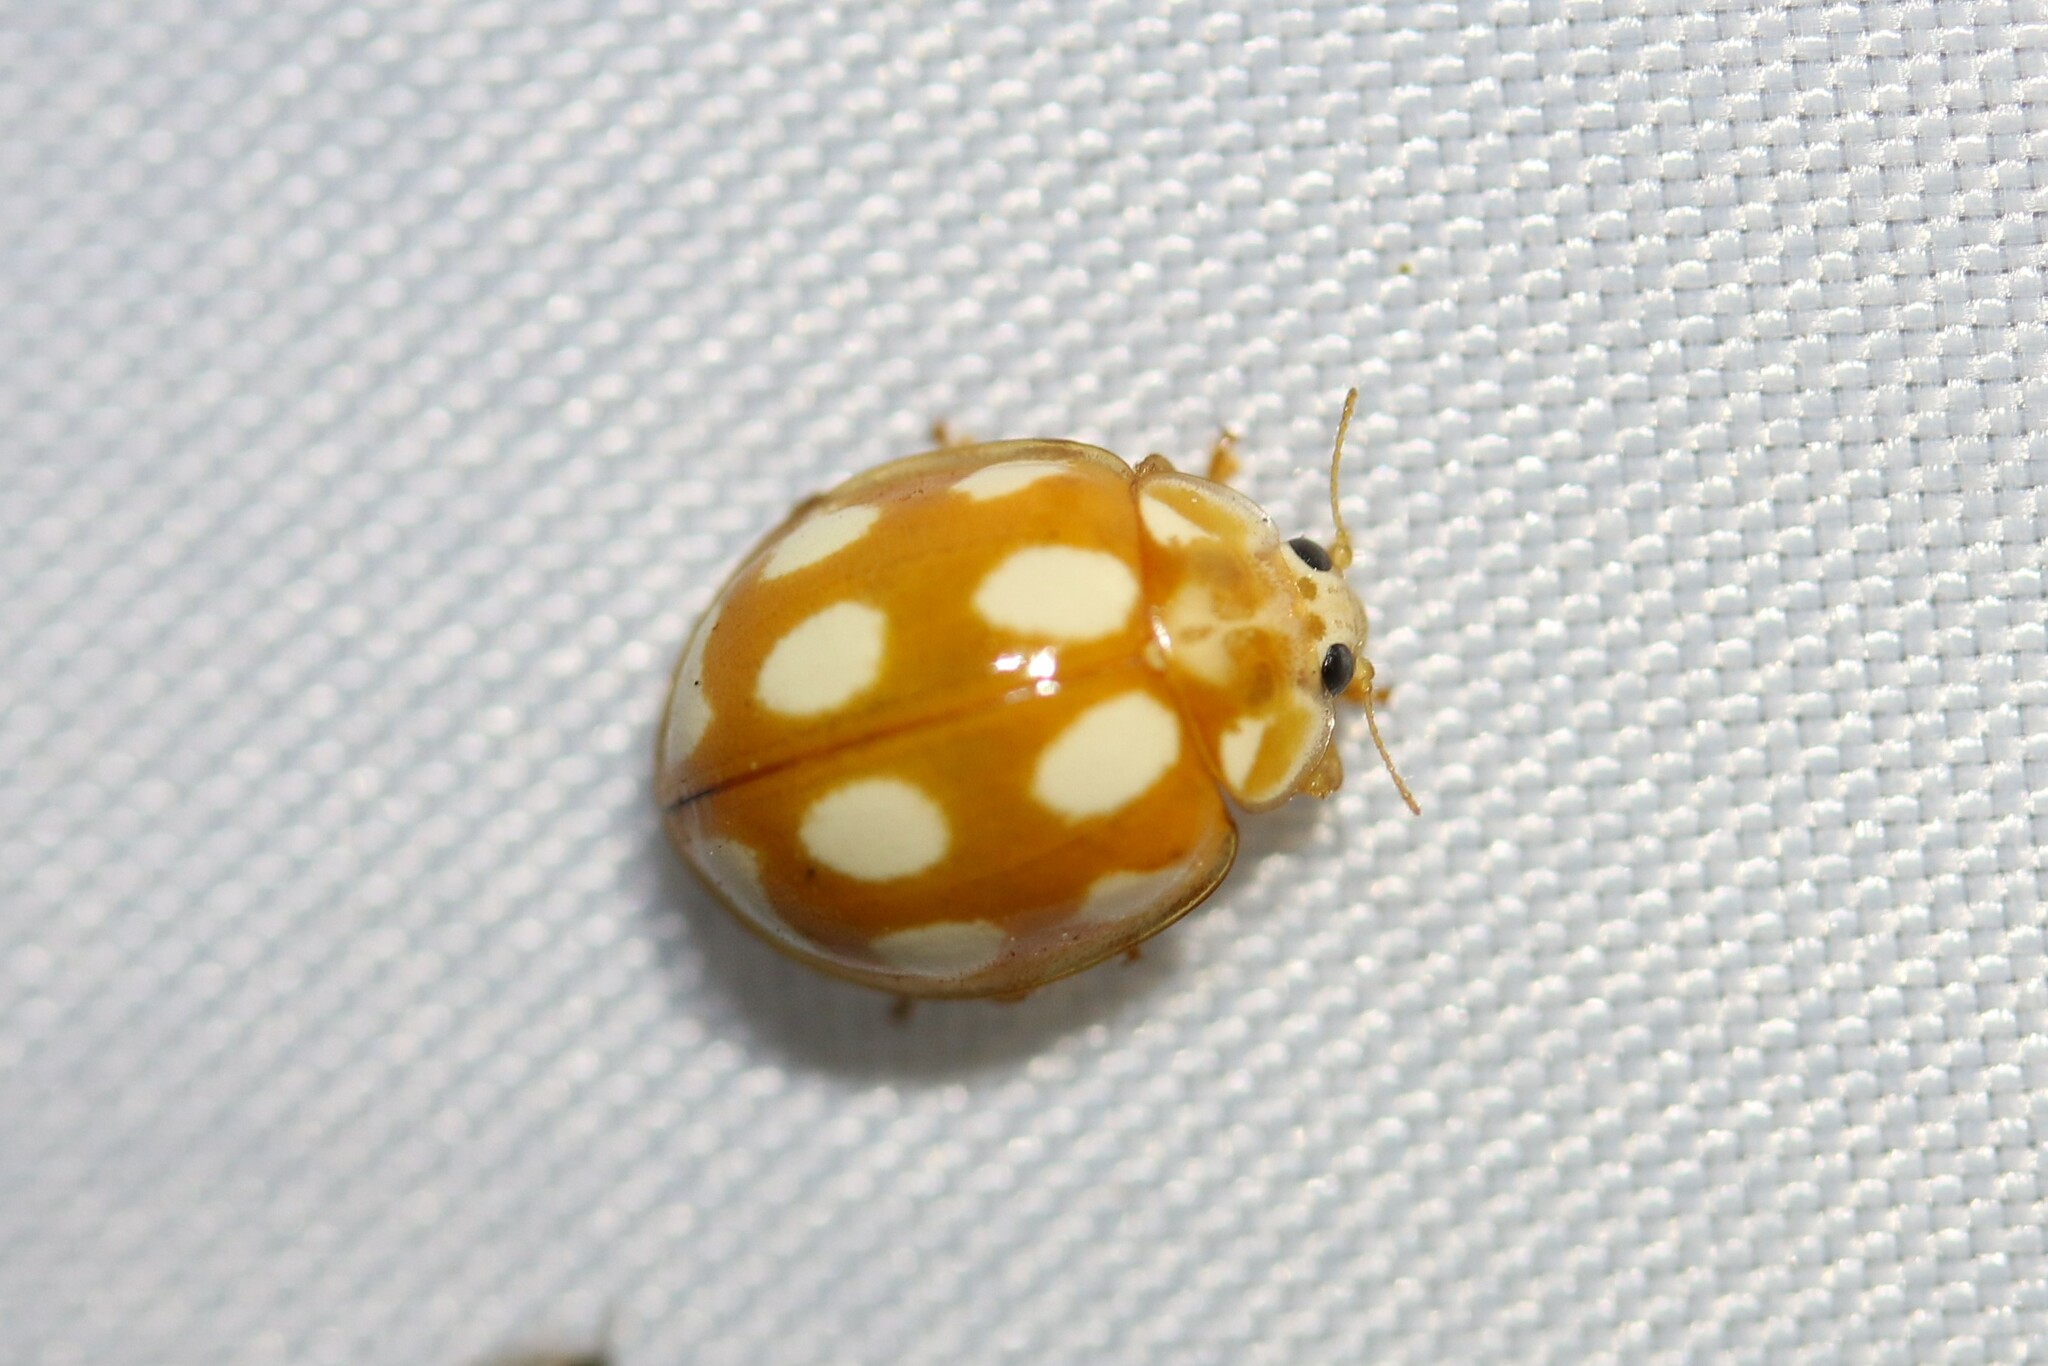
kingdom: Animalia
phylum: Arthropoda
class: Insecta
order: Coleoptera
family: Coccinellidae
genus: Calvia
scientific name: Calvia decemguttata
